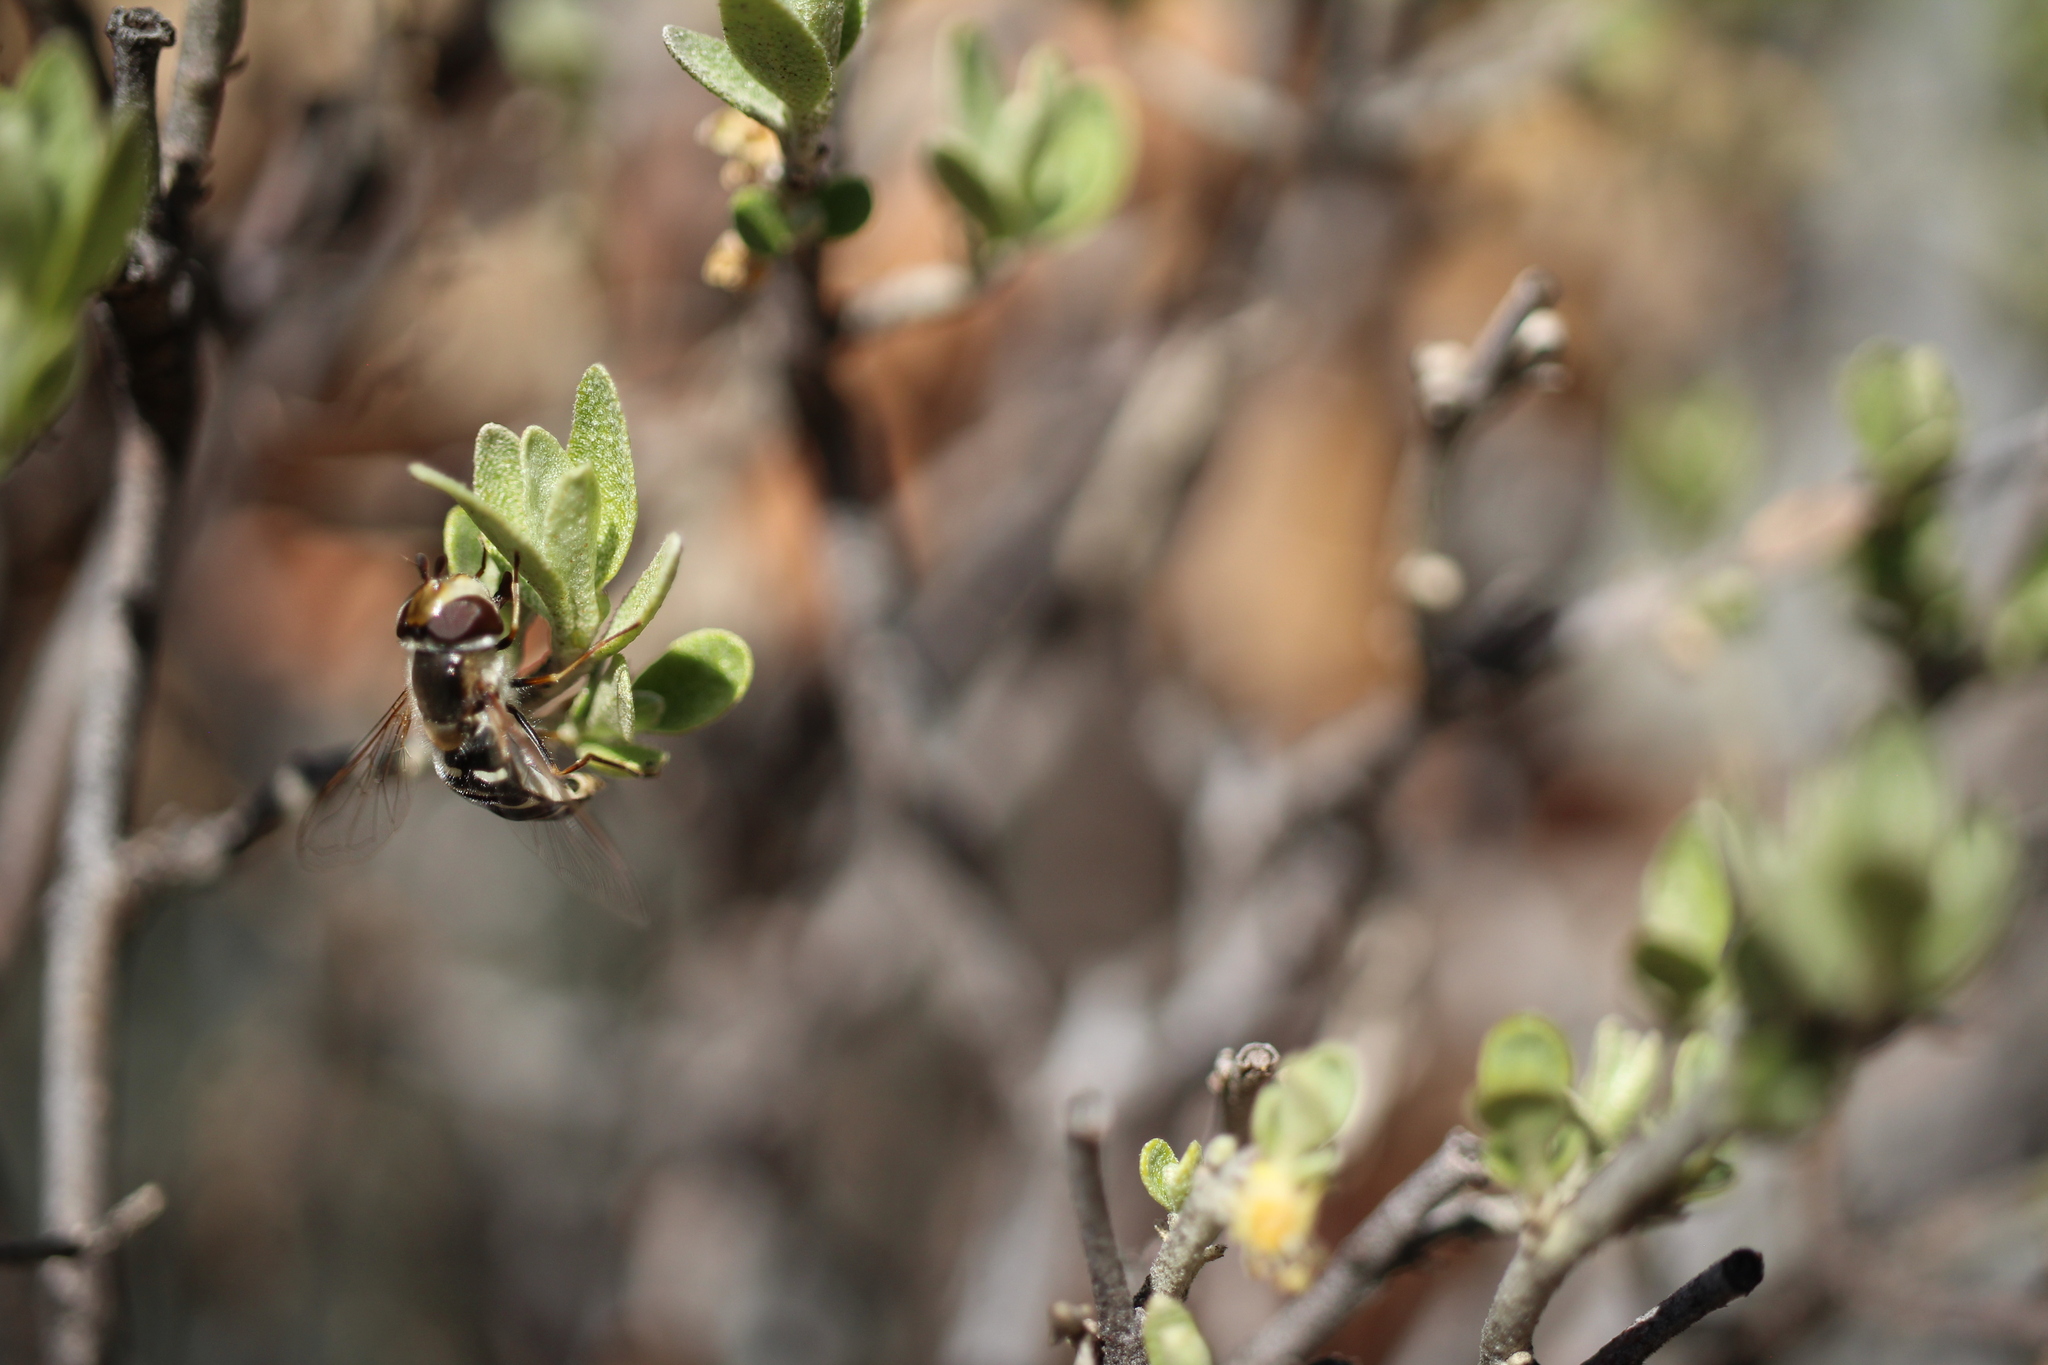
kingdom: Animalia
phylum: Arthropoda
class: Insecta
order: Diptera
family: Syrphidae
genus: Scaeva
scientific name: Scaeva affinis
